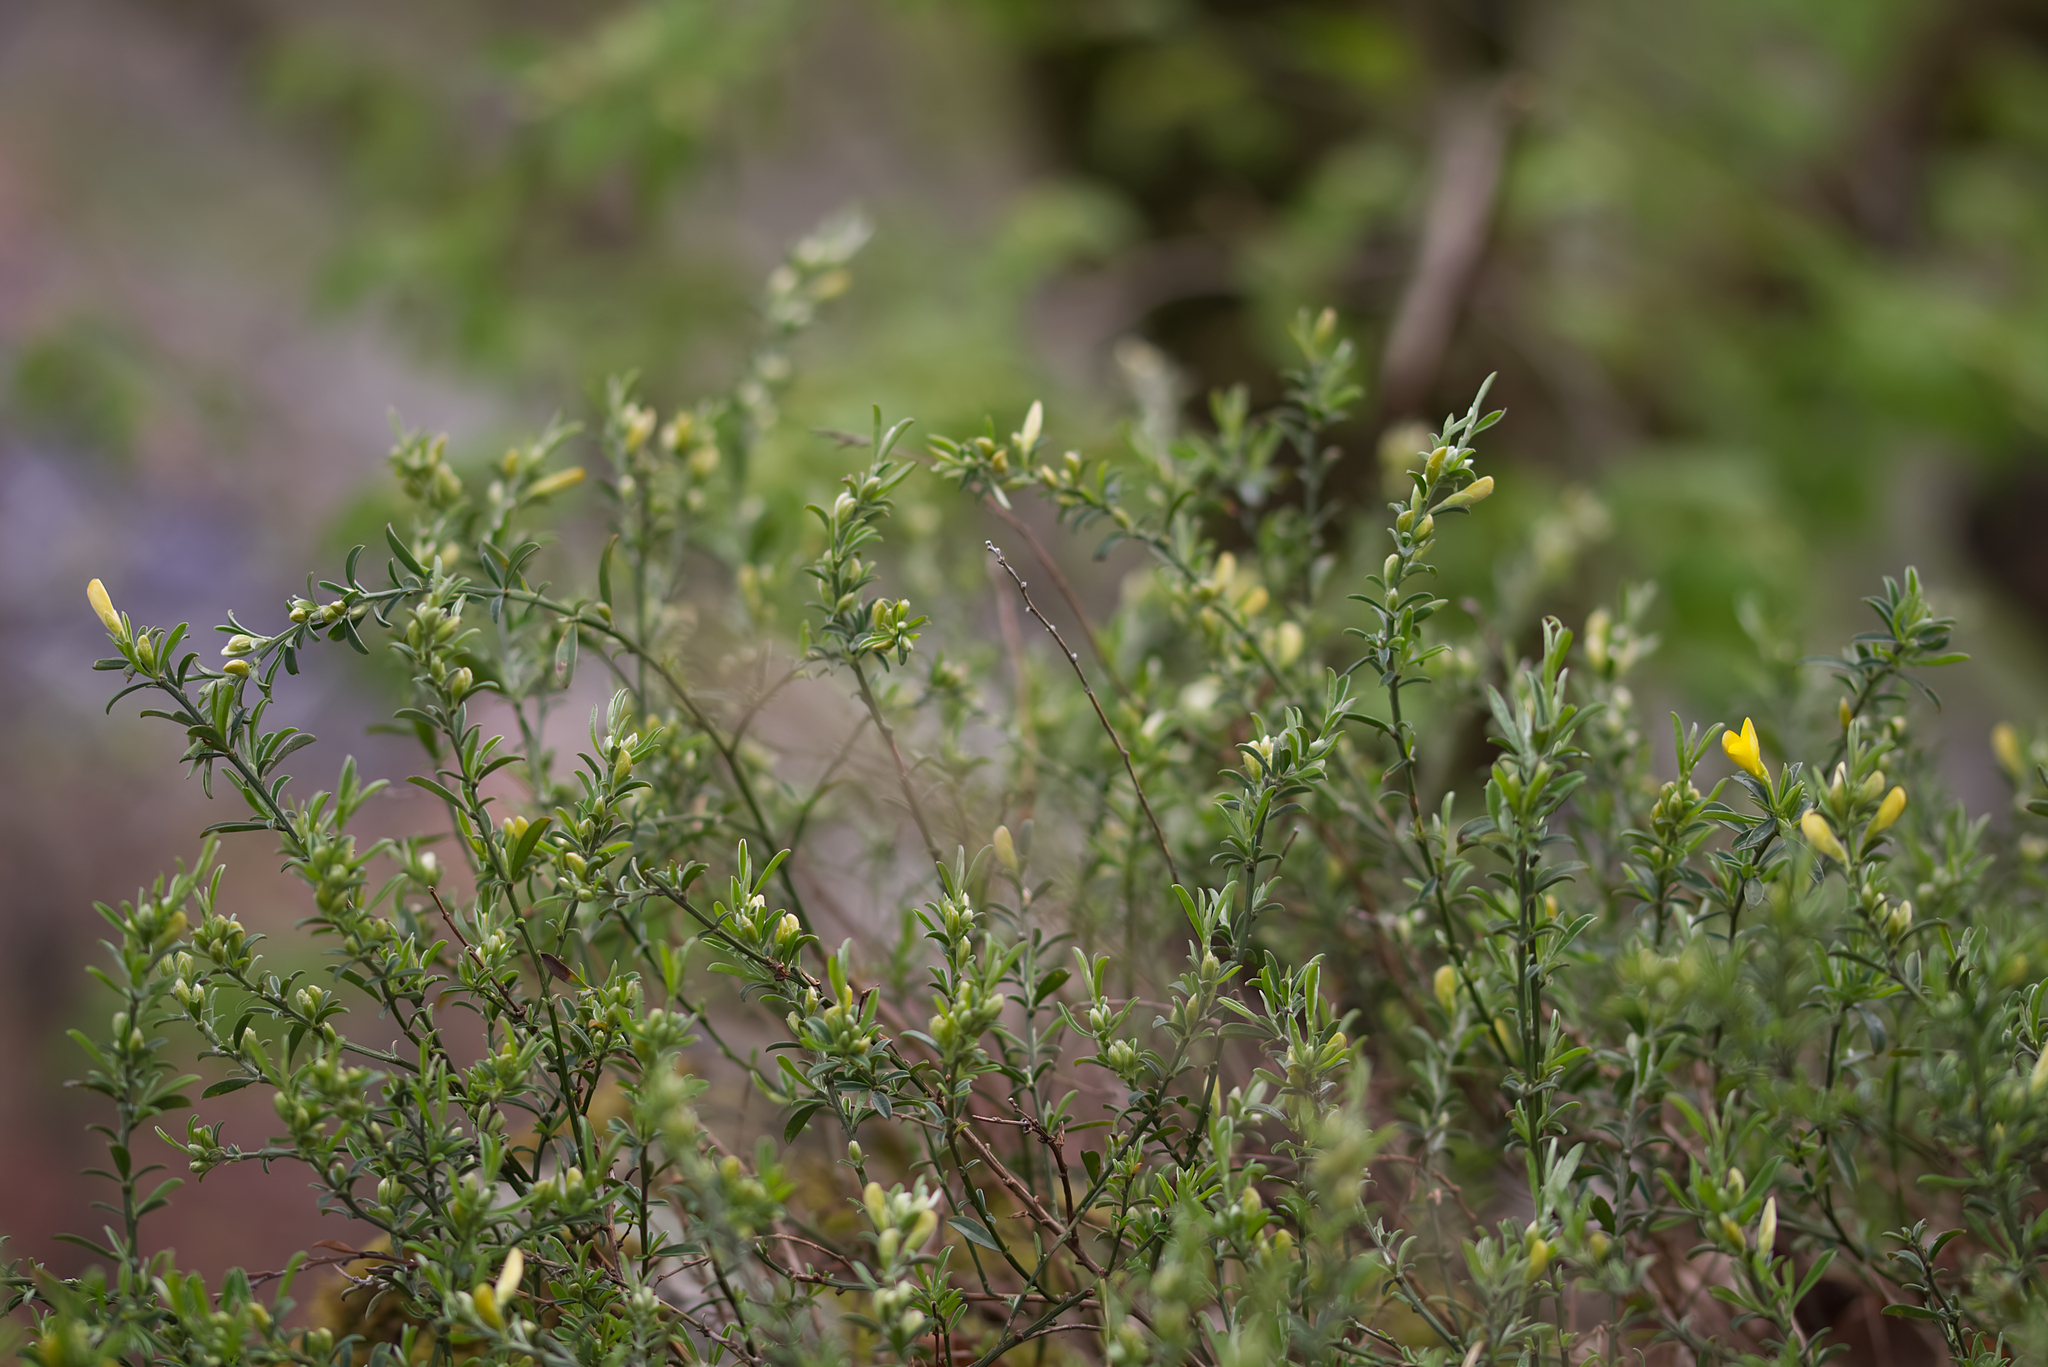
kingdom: Plantae
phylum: Tracheophyta
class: Magnoliopsida
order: Fabales
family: Fabaceae
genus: Genista
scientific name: Genista pilosa
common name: Hairy greenweed
